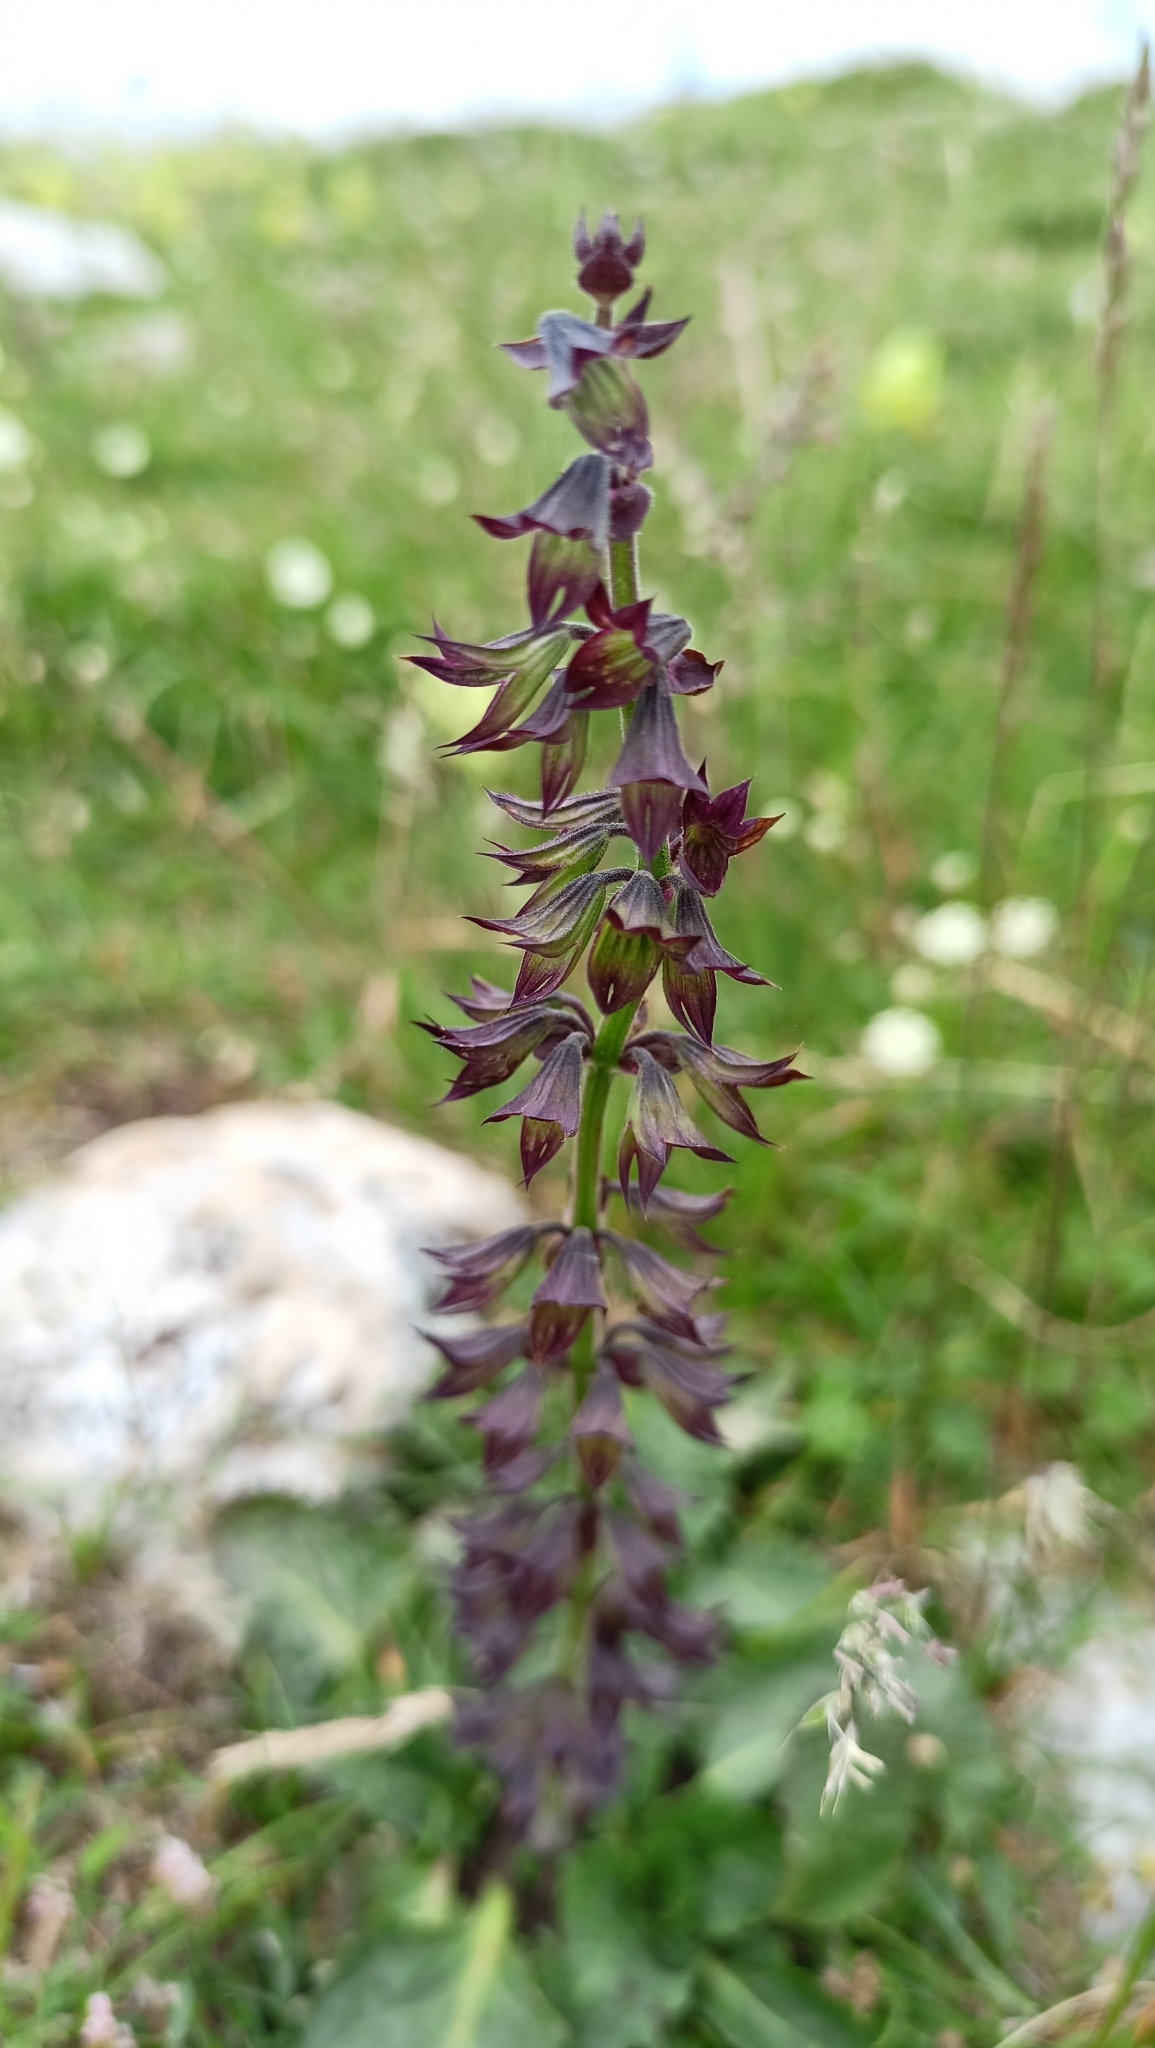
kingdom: Plantae
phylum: Tracheophyta
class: Magnoliopsida
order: Lamiales
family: Lamiaceae
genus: Horminum
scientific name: Horminum pyrenaicum
